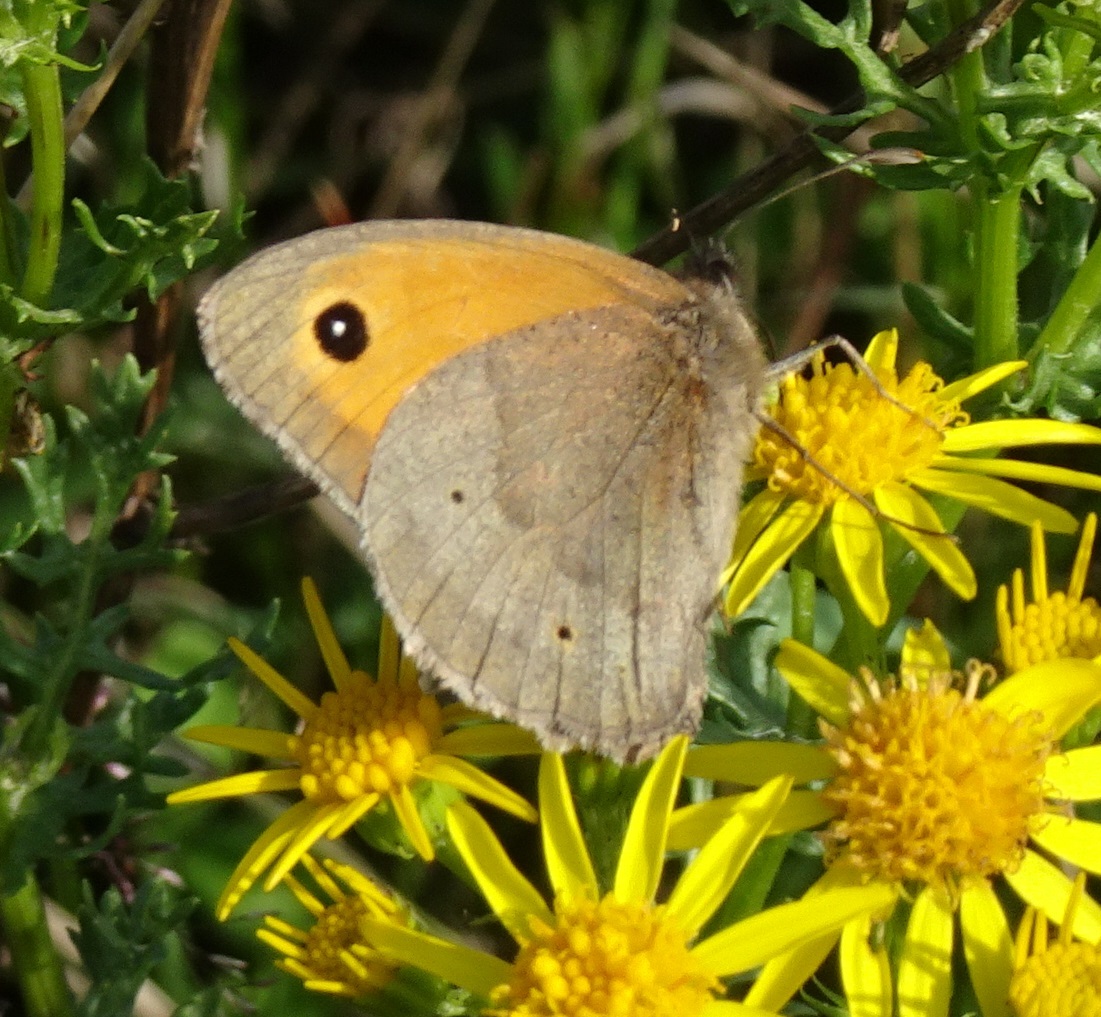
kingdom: Animalia
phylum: Arthropoda
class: Insecta
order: Lepidoptera
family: Nymphalidae
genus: Maniola
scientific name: Maniola jurtina
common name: Meadow brown
